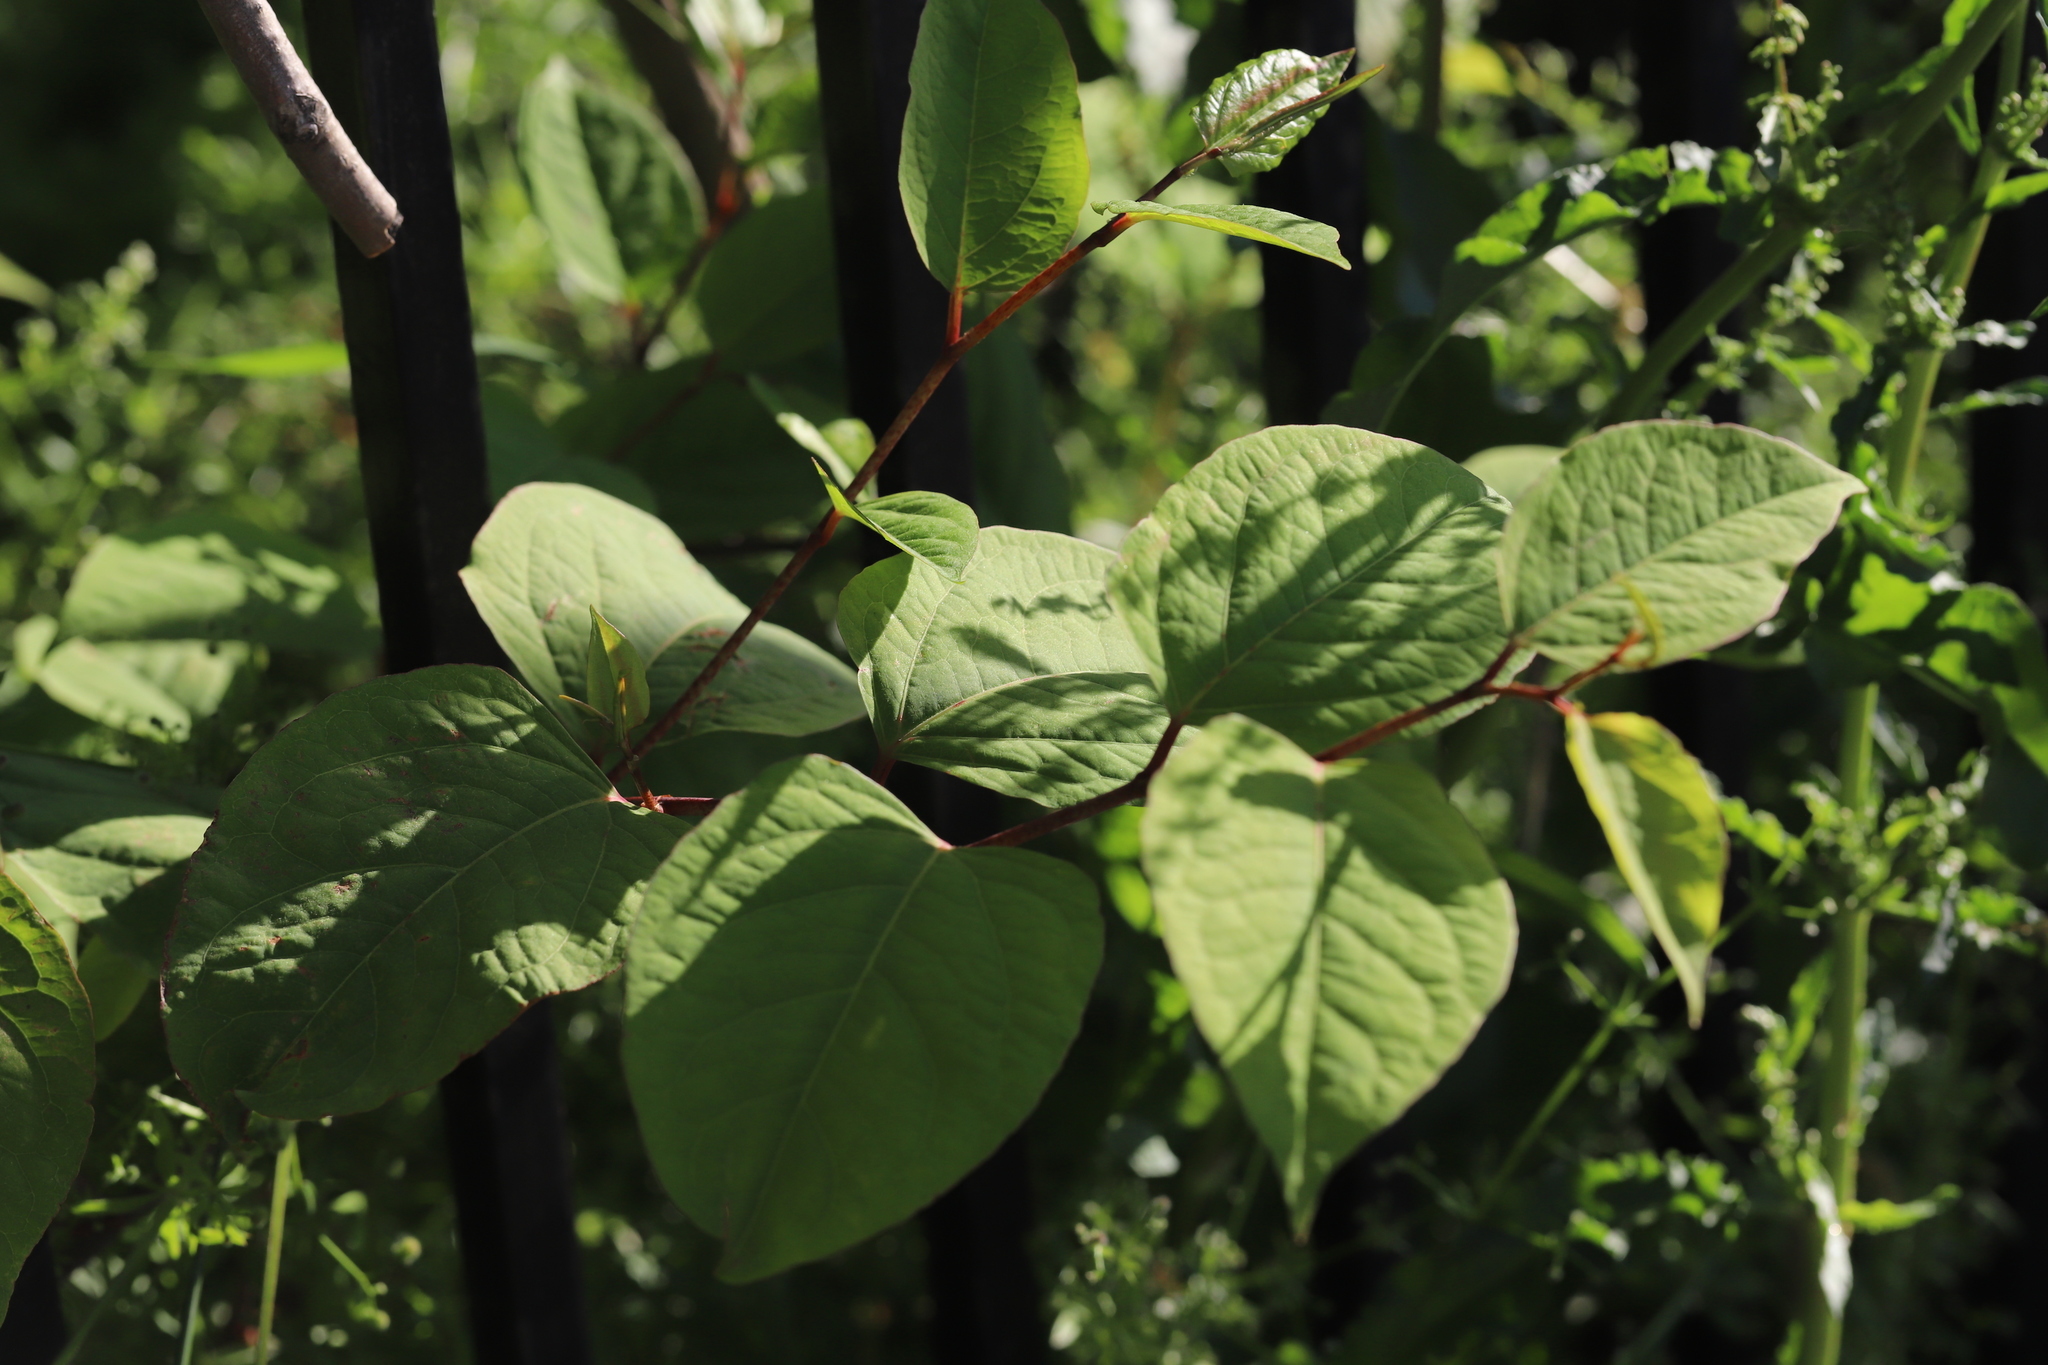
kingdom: Plantae
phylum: Tracheophyta
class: Magnoliopsida
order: Caryophyllales
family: Polygonaceae
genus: Reynoutria
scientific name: Reynoutria japonica
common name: Japanese knotweed
